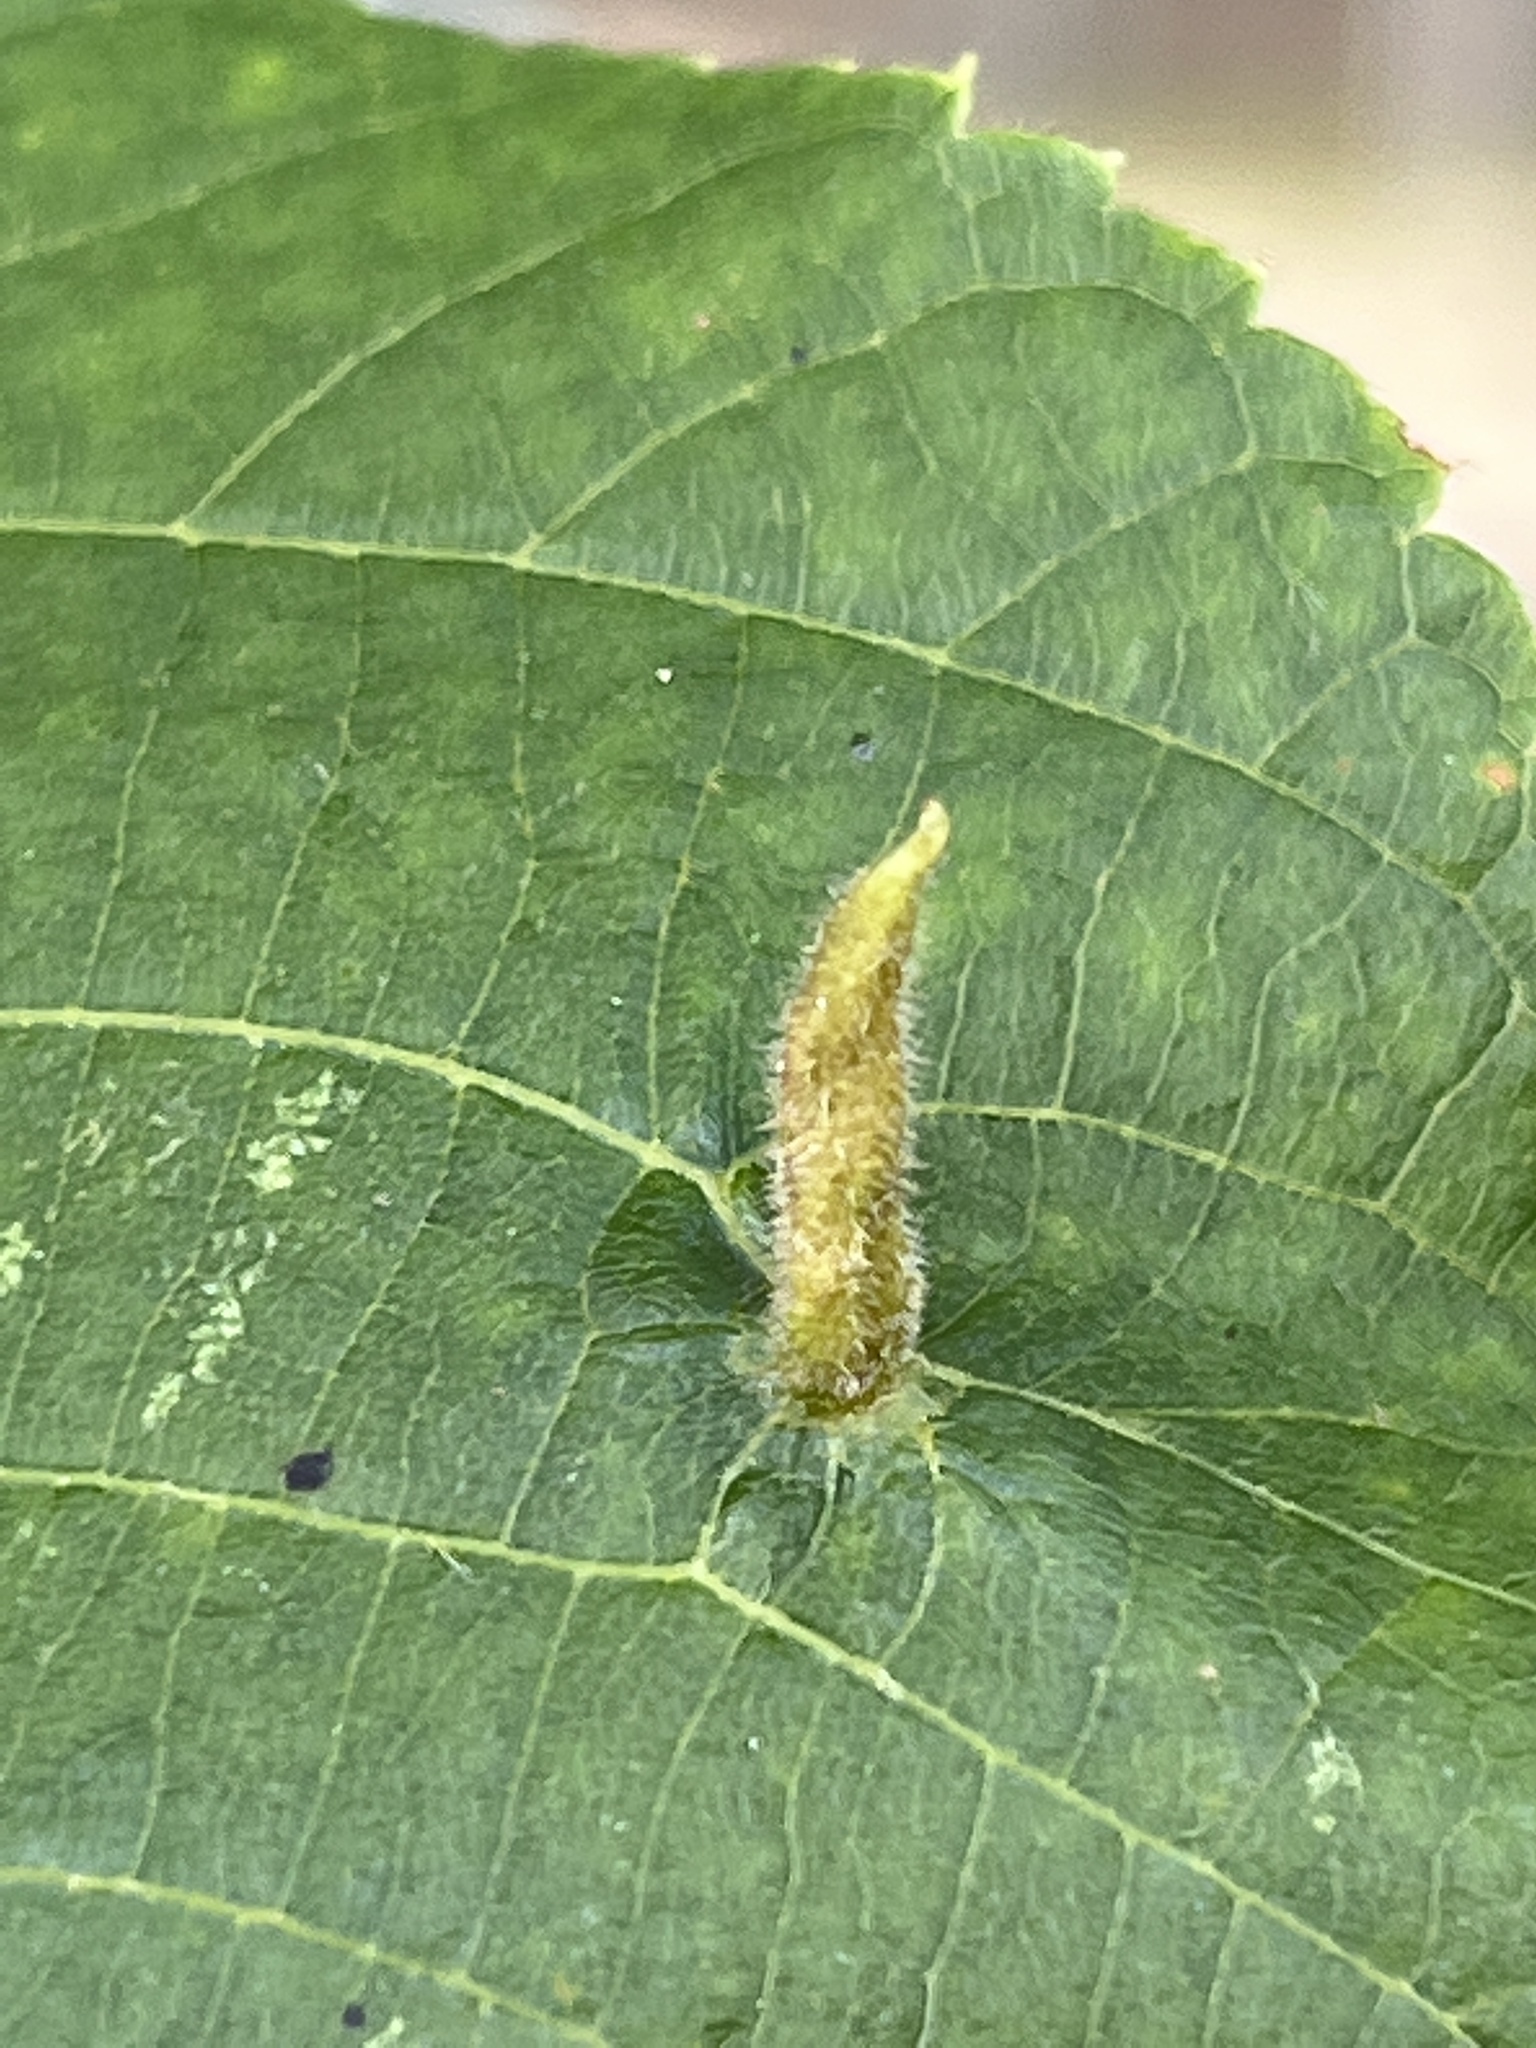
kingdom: Animalia
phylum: Arthropoda
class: Arachnida
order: Trombidiformes
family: Eriophyidae
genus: Eriophyes
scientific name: Eriophyes tiliae
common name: Red nail gall mite
